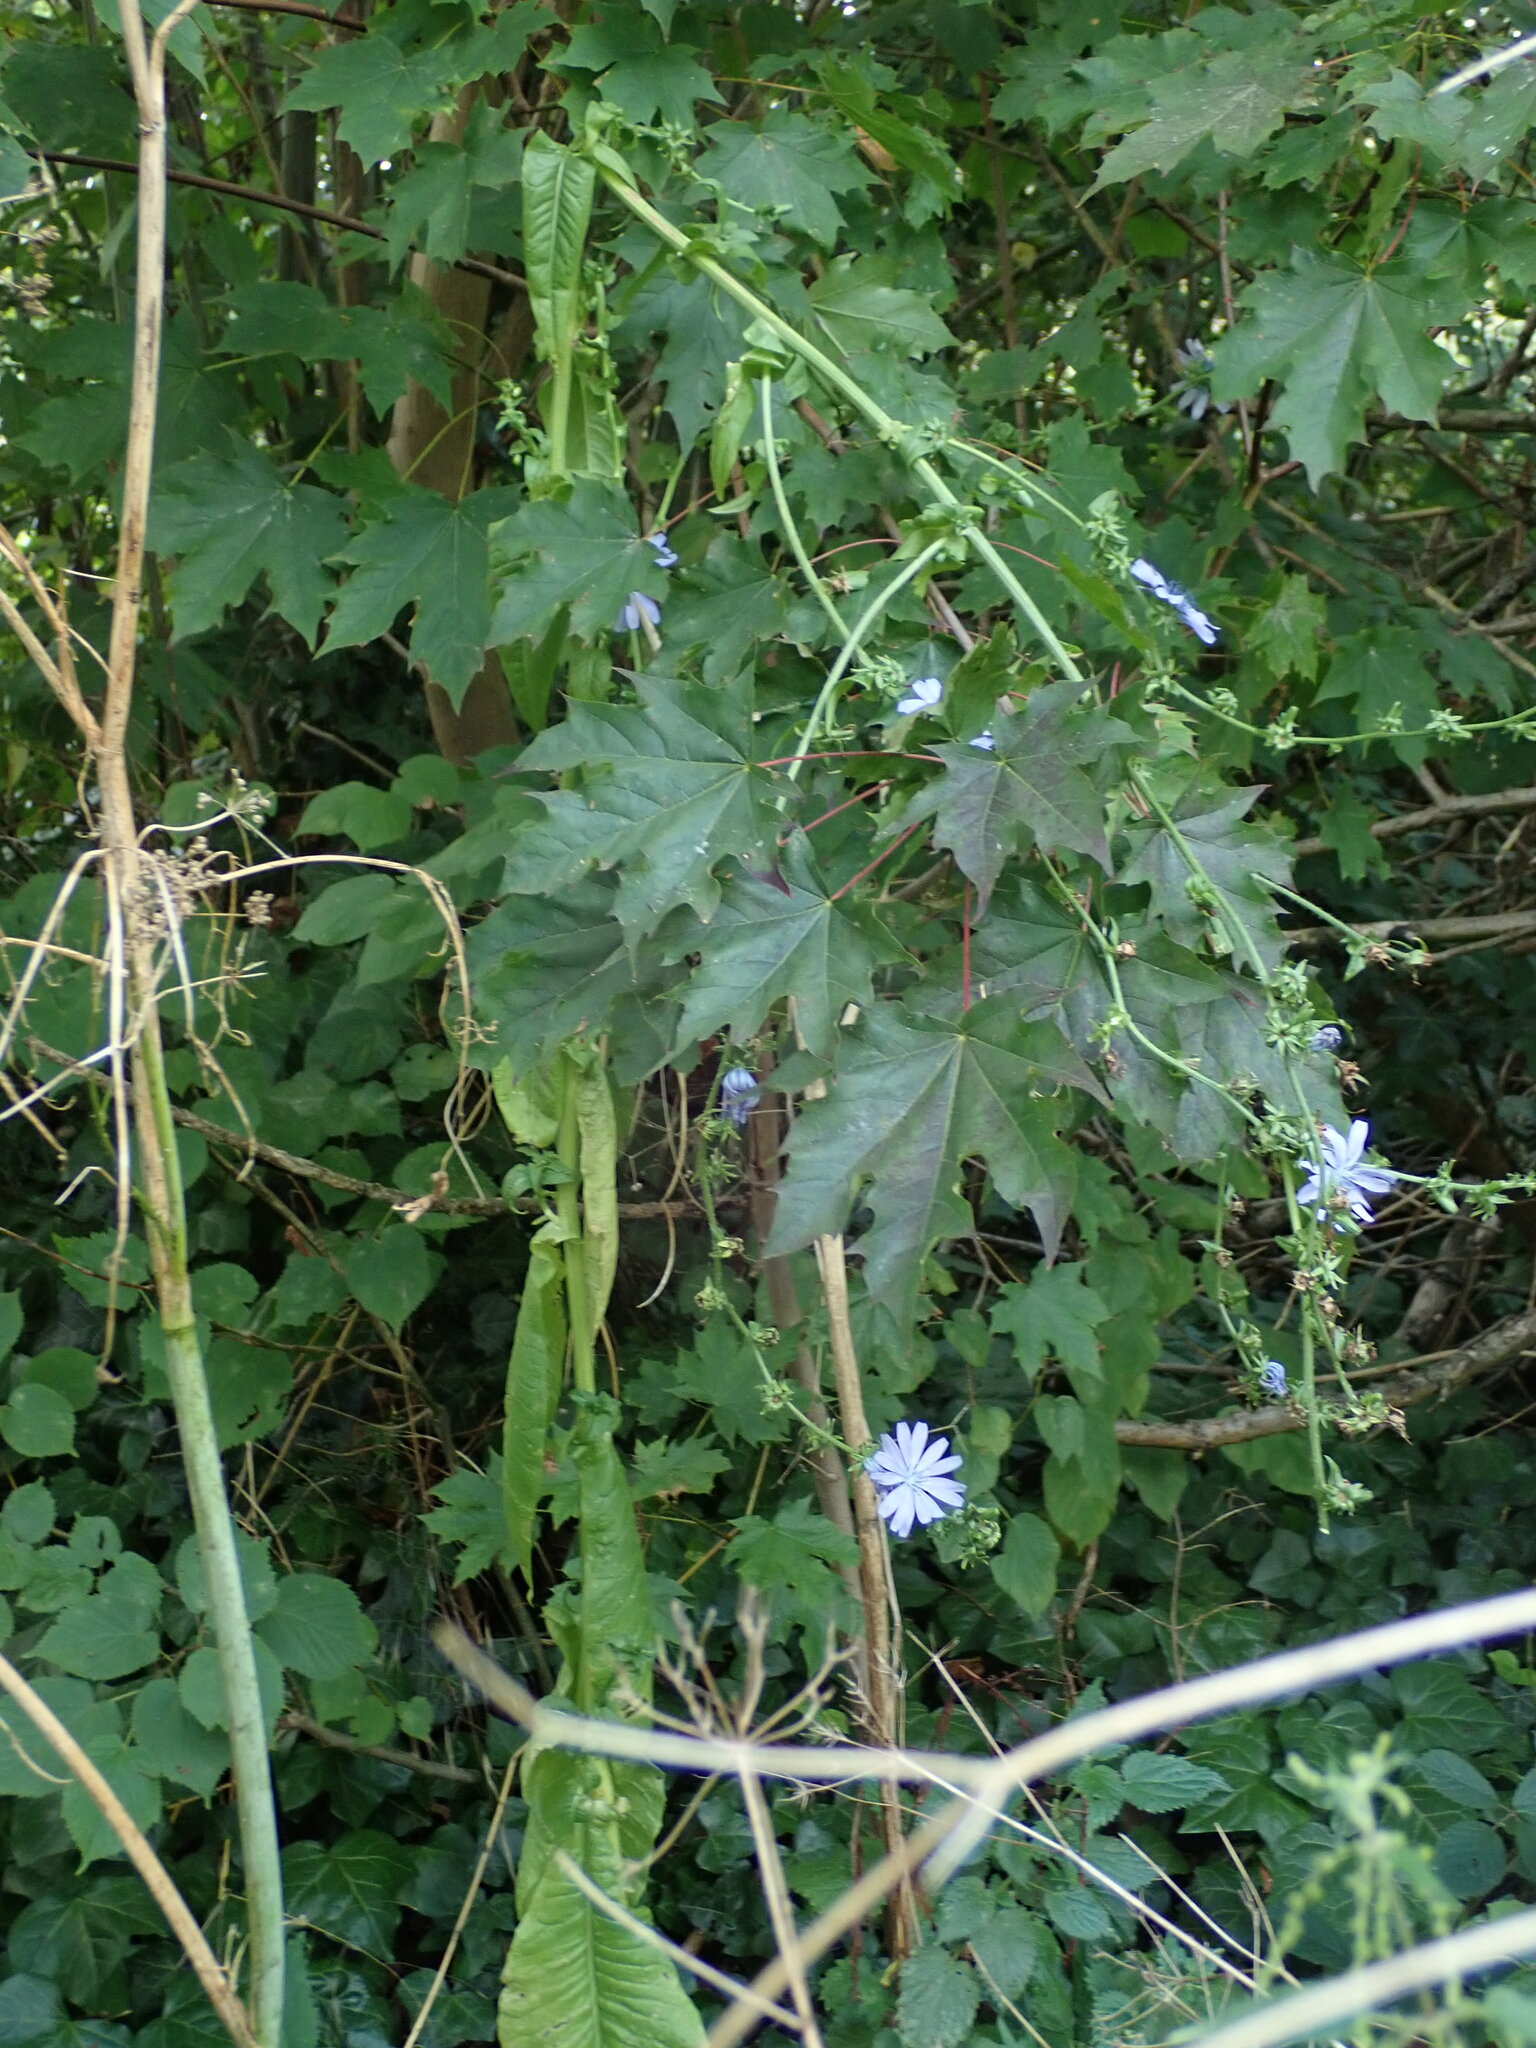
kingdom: Plantae
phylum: Tracheophyta
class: Magnoliopsida
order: Asterales
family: Asteraceae
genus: Cichorium
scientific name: Cichorium intybus
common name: Chicory
